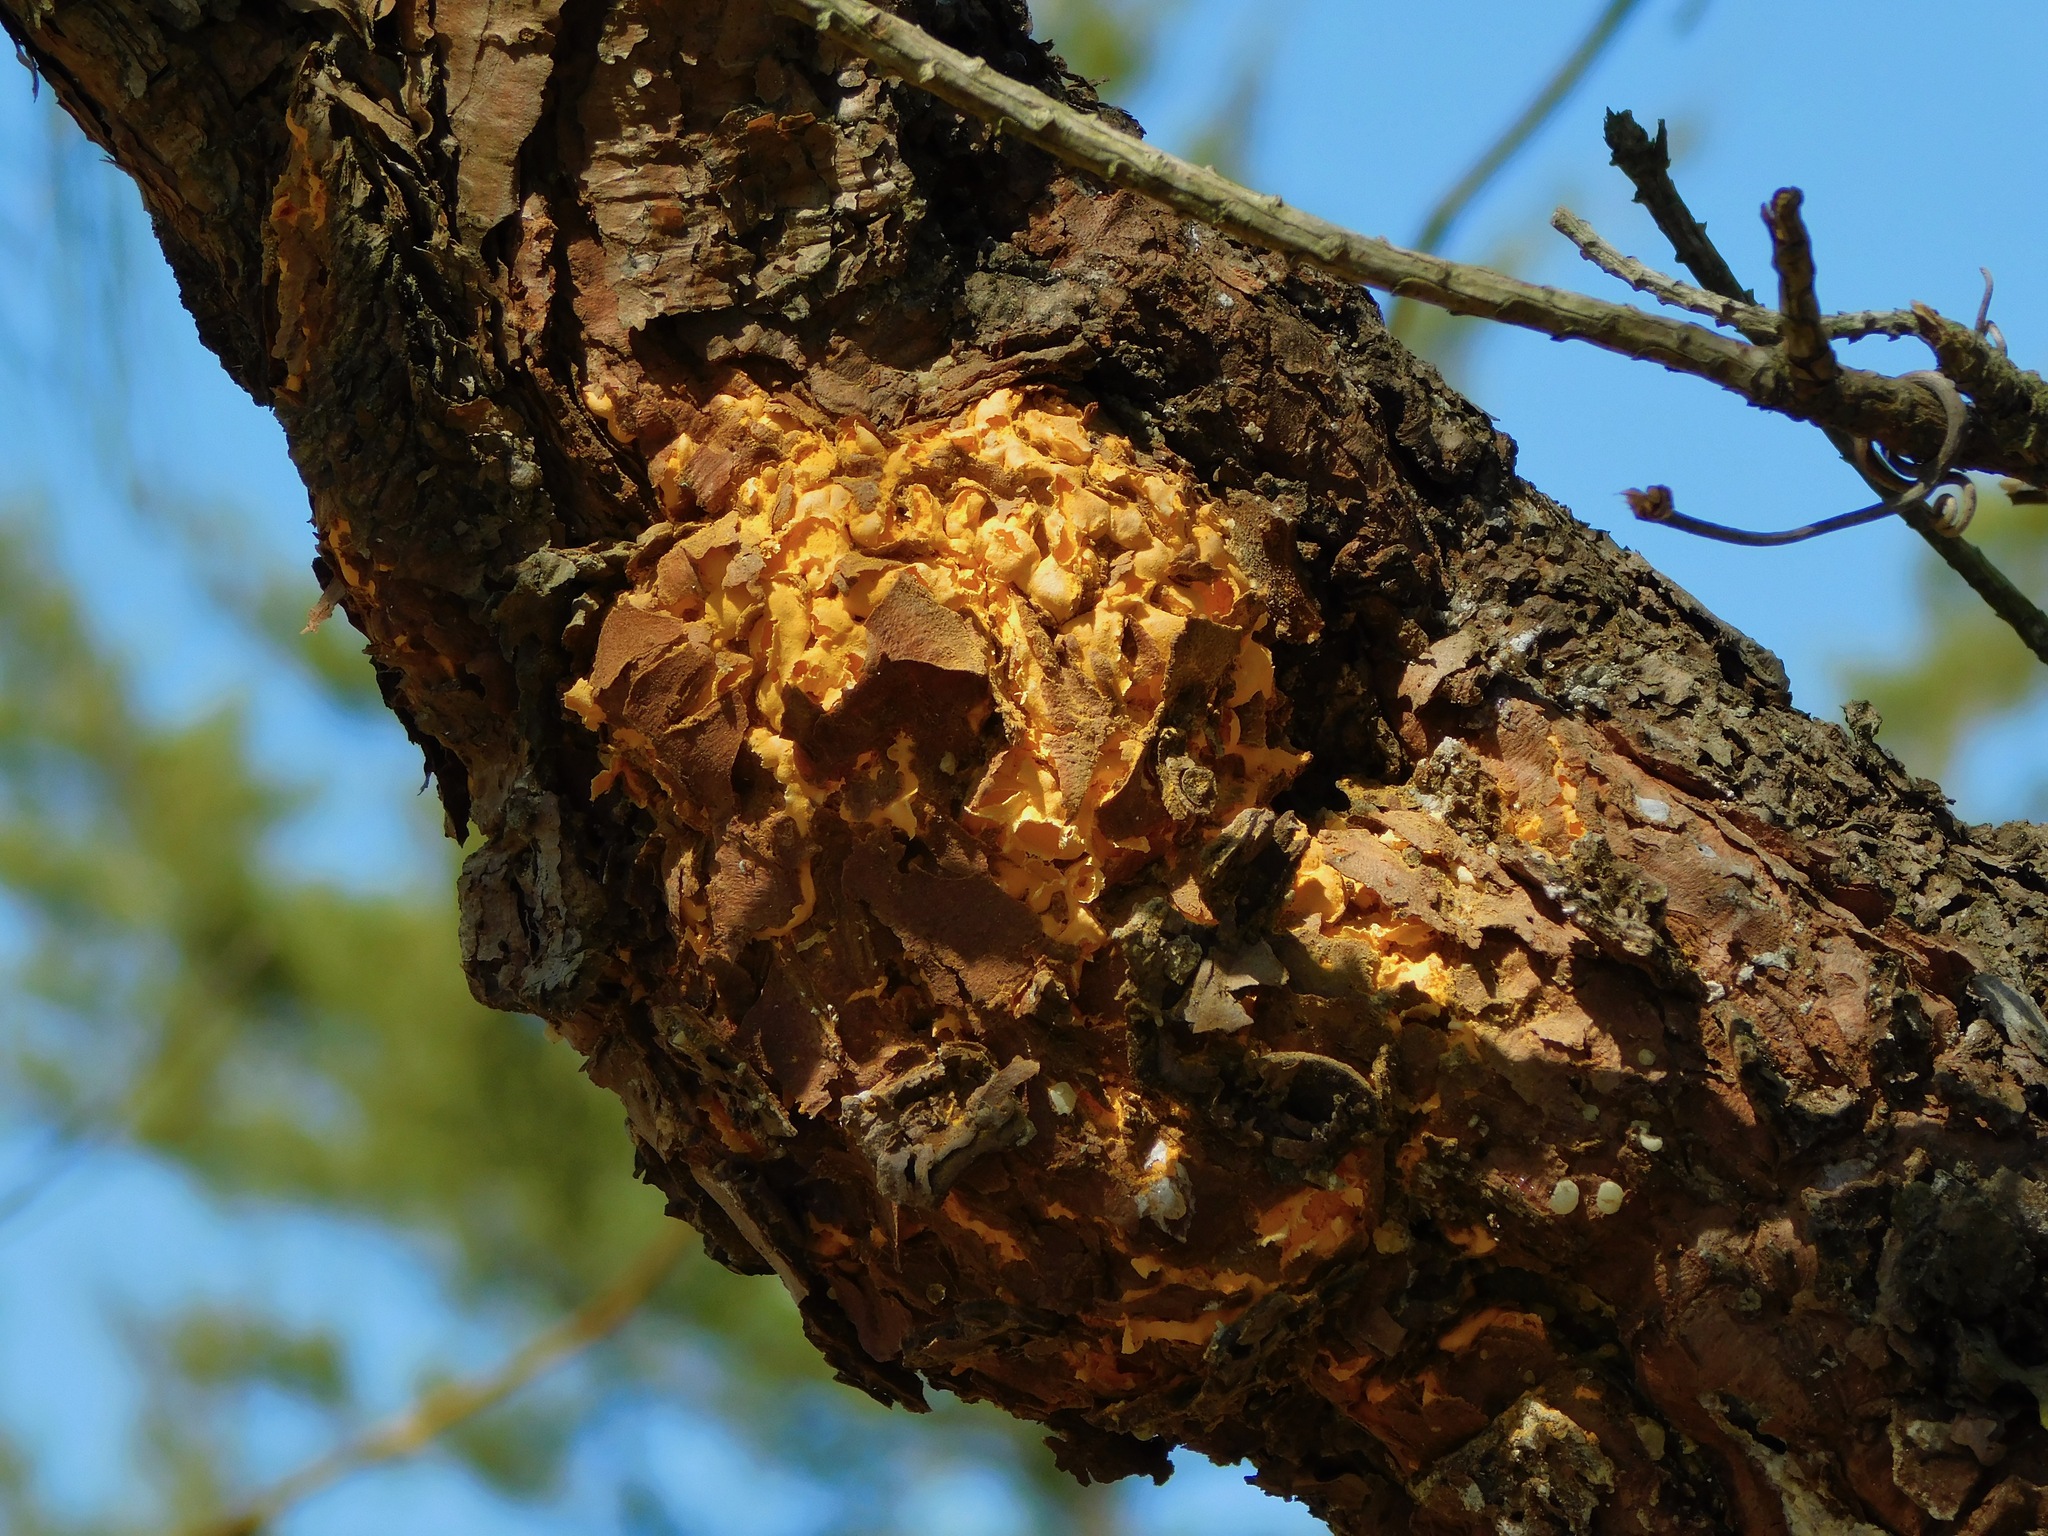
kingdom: Fungi
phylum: Basidiomycota
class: Pucciniomycetes
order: Pucciniales
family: Cronartiaceae
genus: Cronartium
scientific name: Cronartium quercuum
